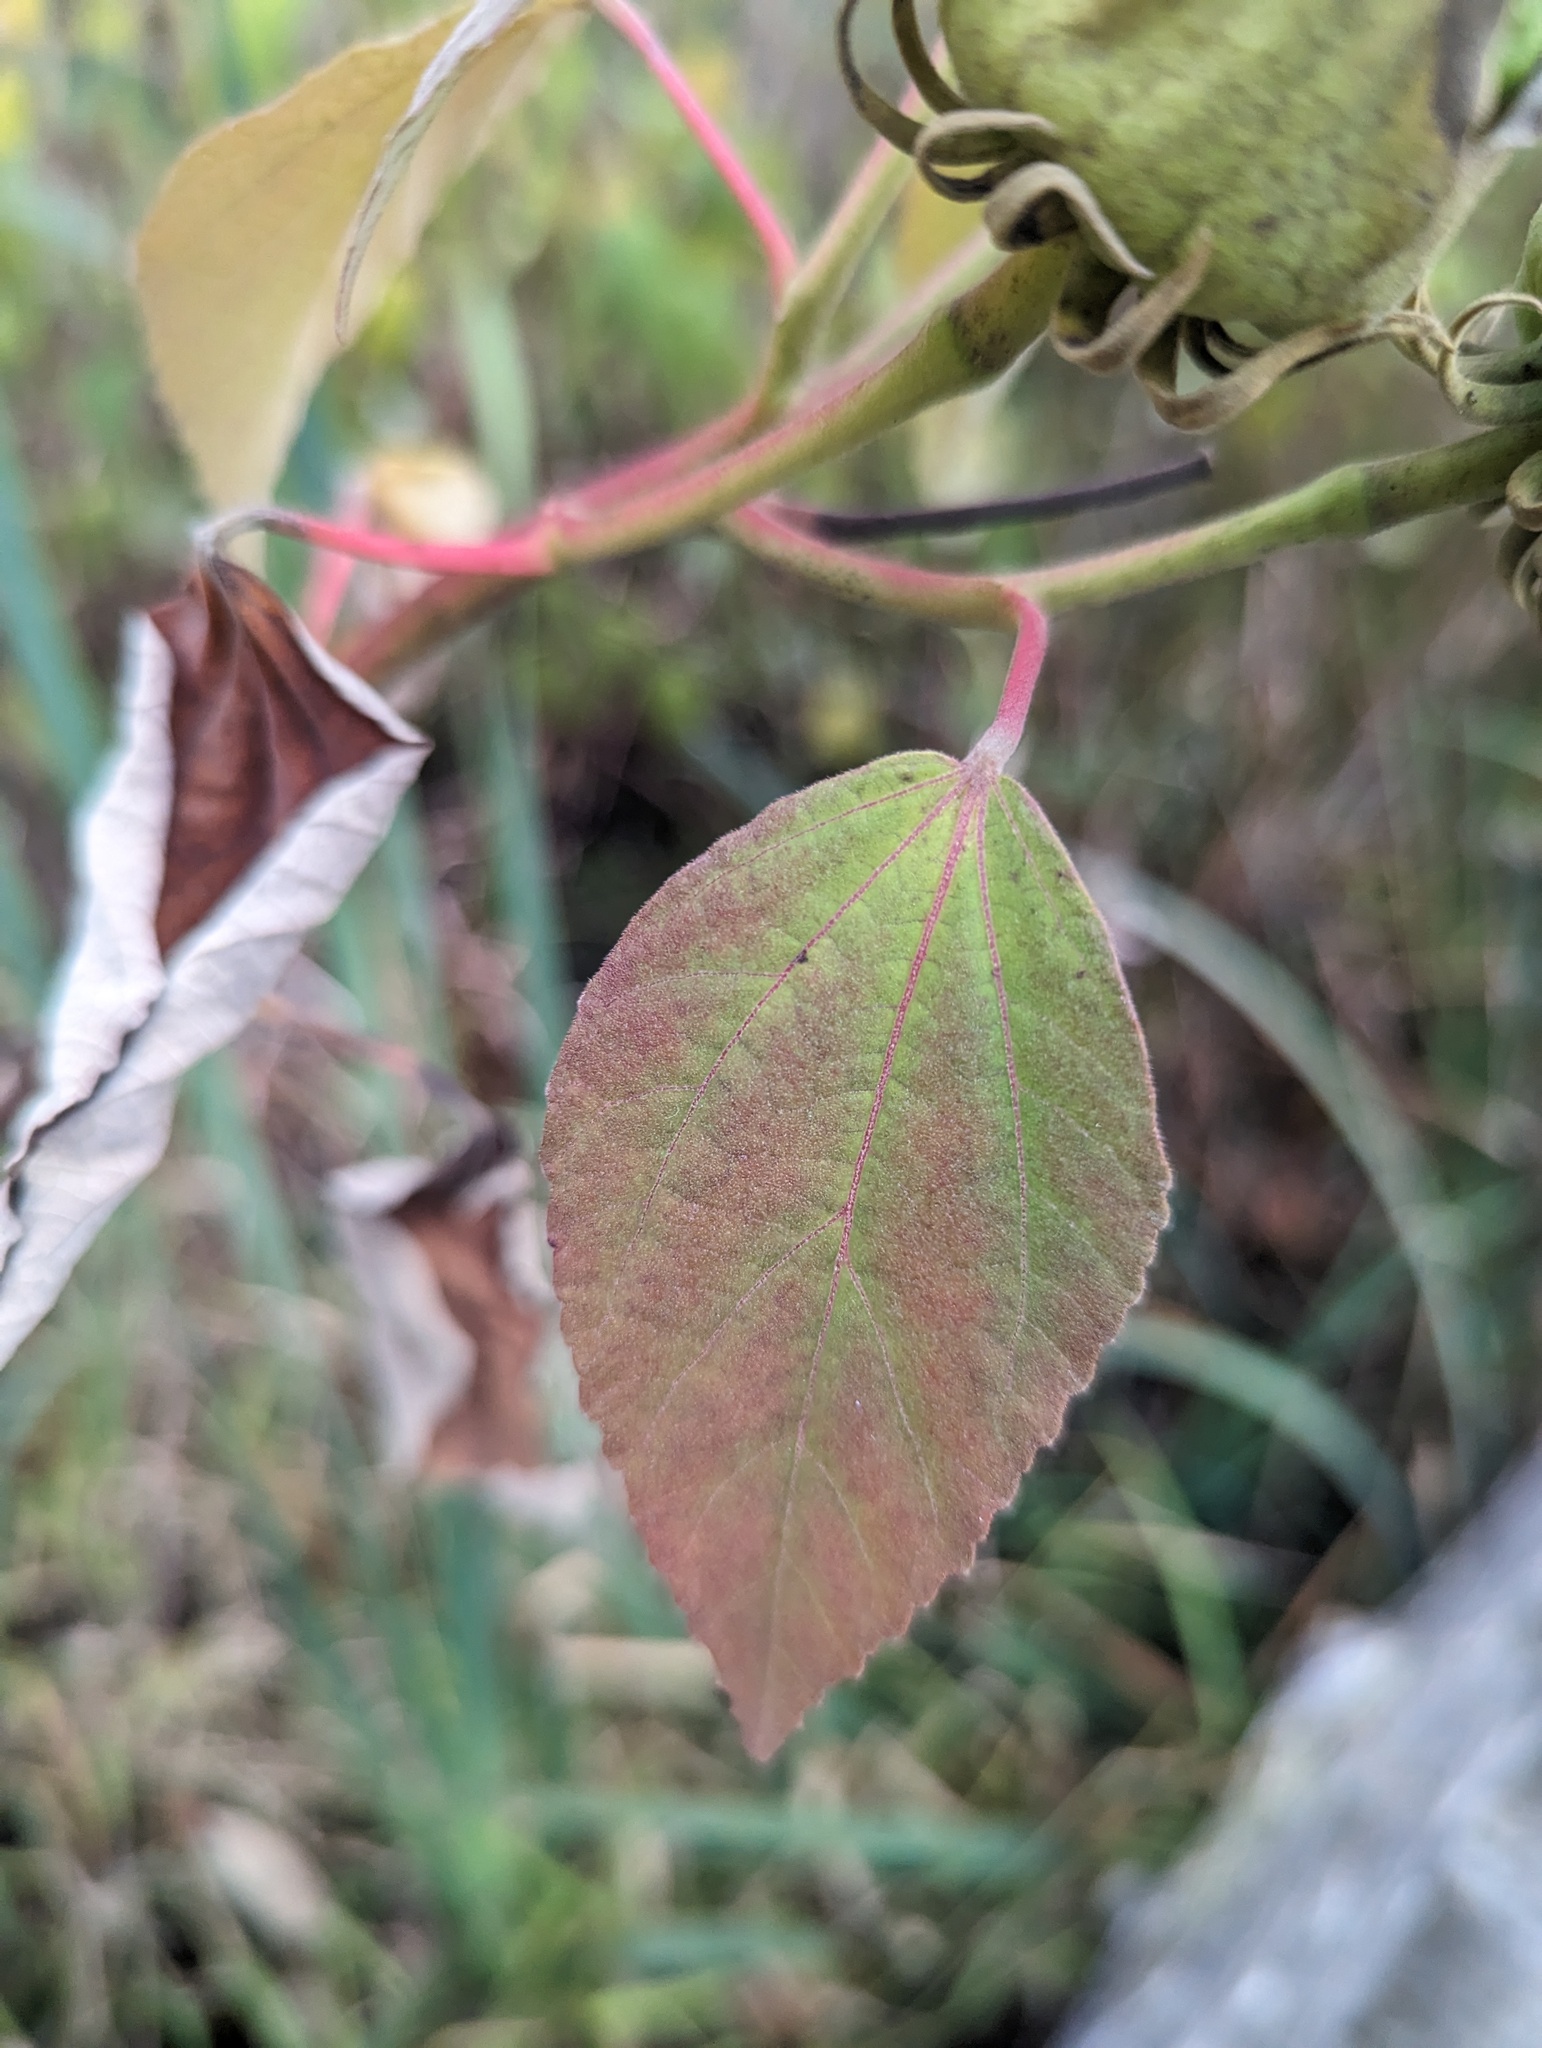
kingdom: Plantae
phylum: Tracheophyta
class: Magnoliopsida
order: Malvales
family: Malvaceae
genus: Hibiscus
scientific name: Hibiscus moscheutos
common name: Common rose-mallow
